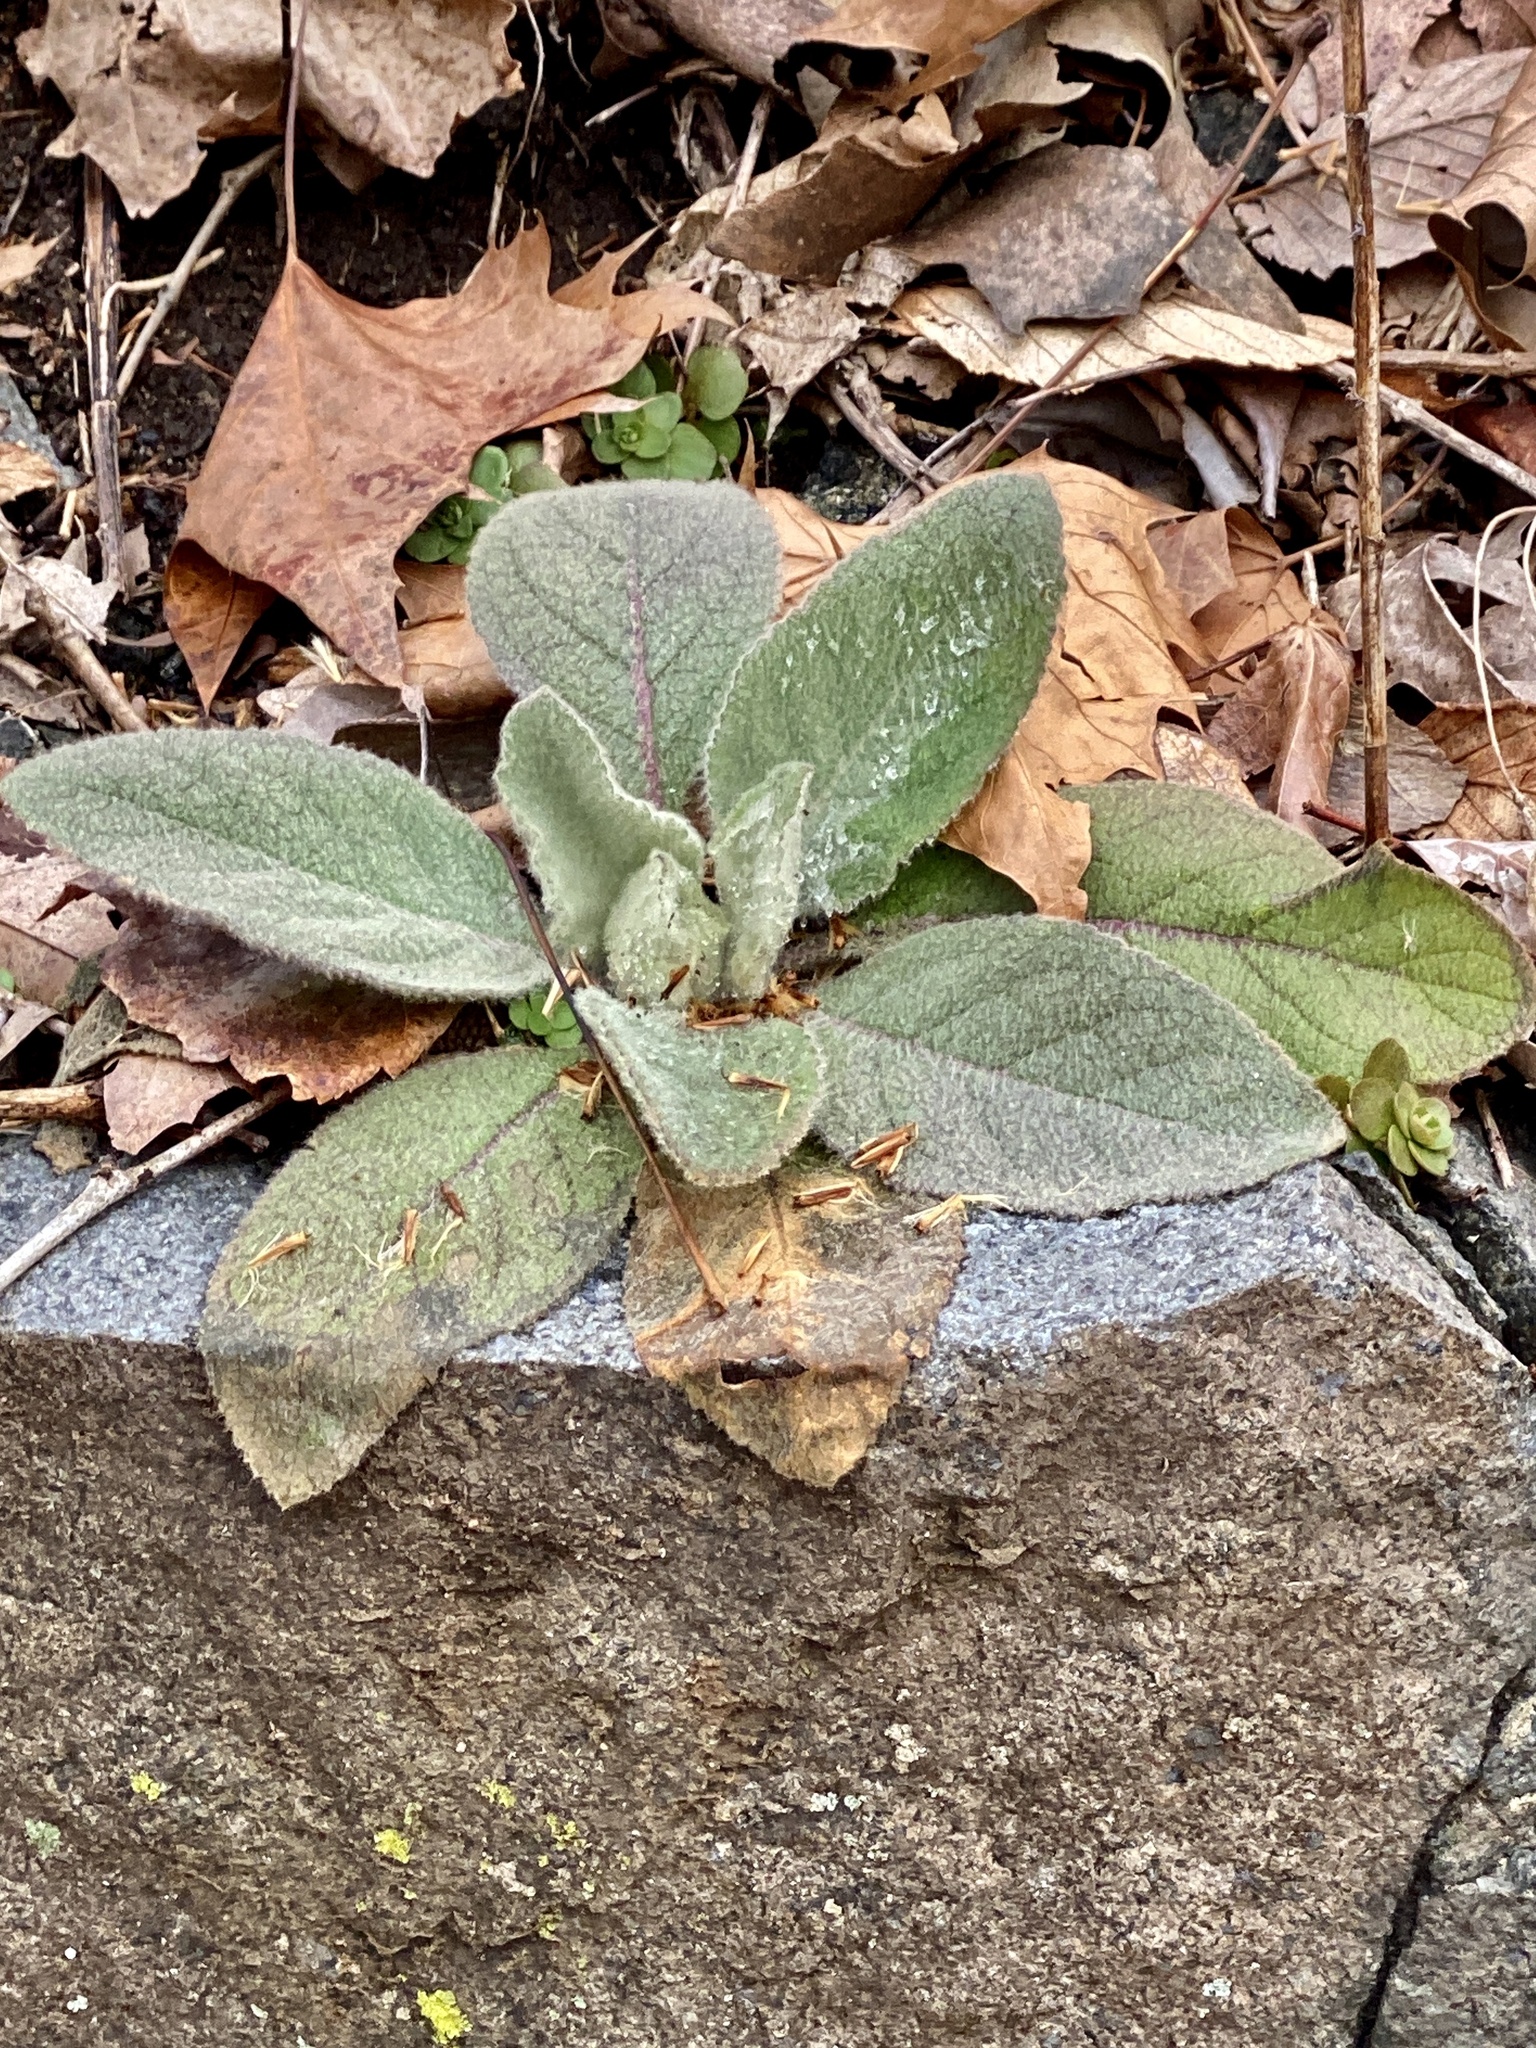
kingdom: Plantae
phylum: Tracheophyta
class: Magnoliopsida
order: Lamiales
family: Scrophulariaceae
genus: Verbascum
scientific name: Verbascum thapsus
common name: Common mullein
